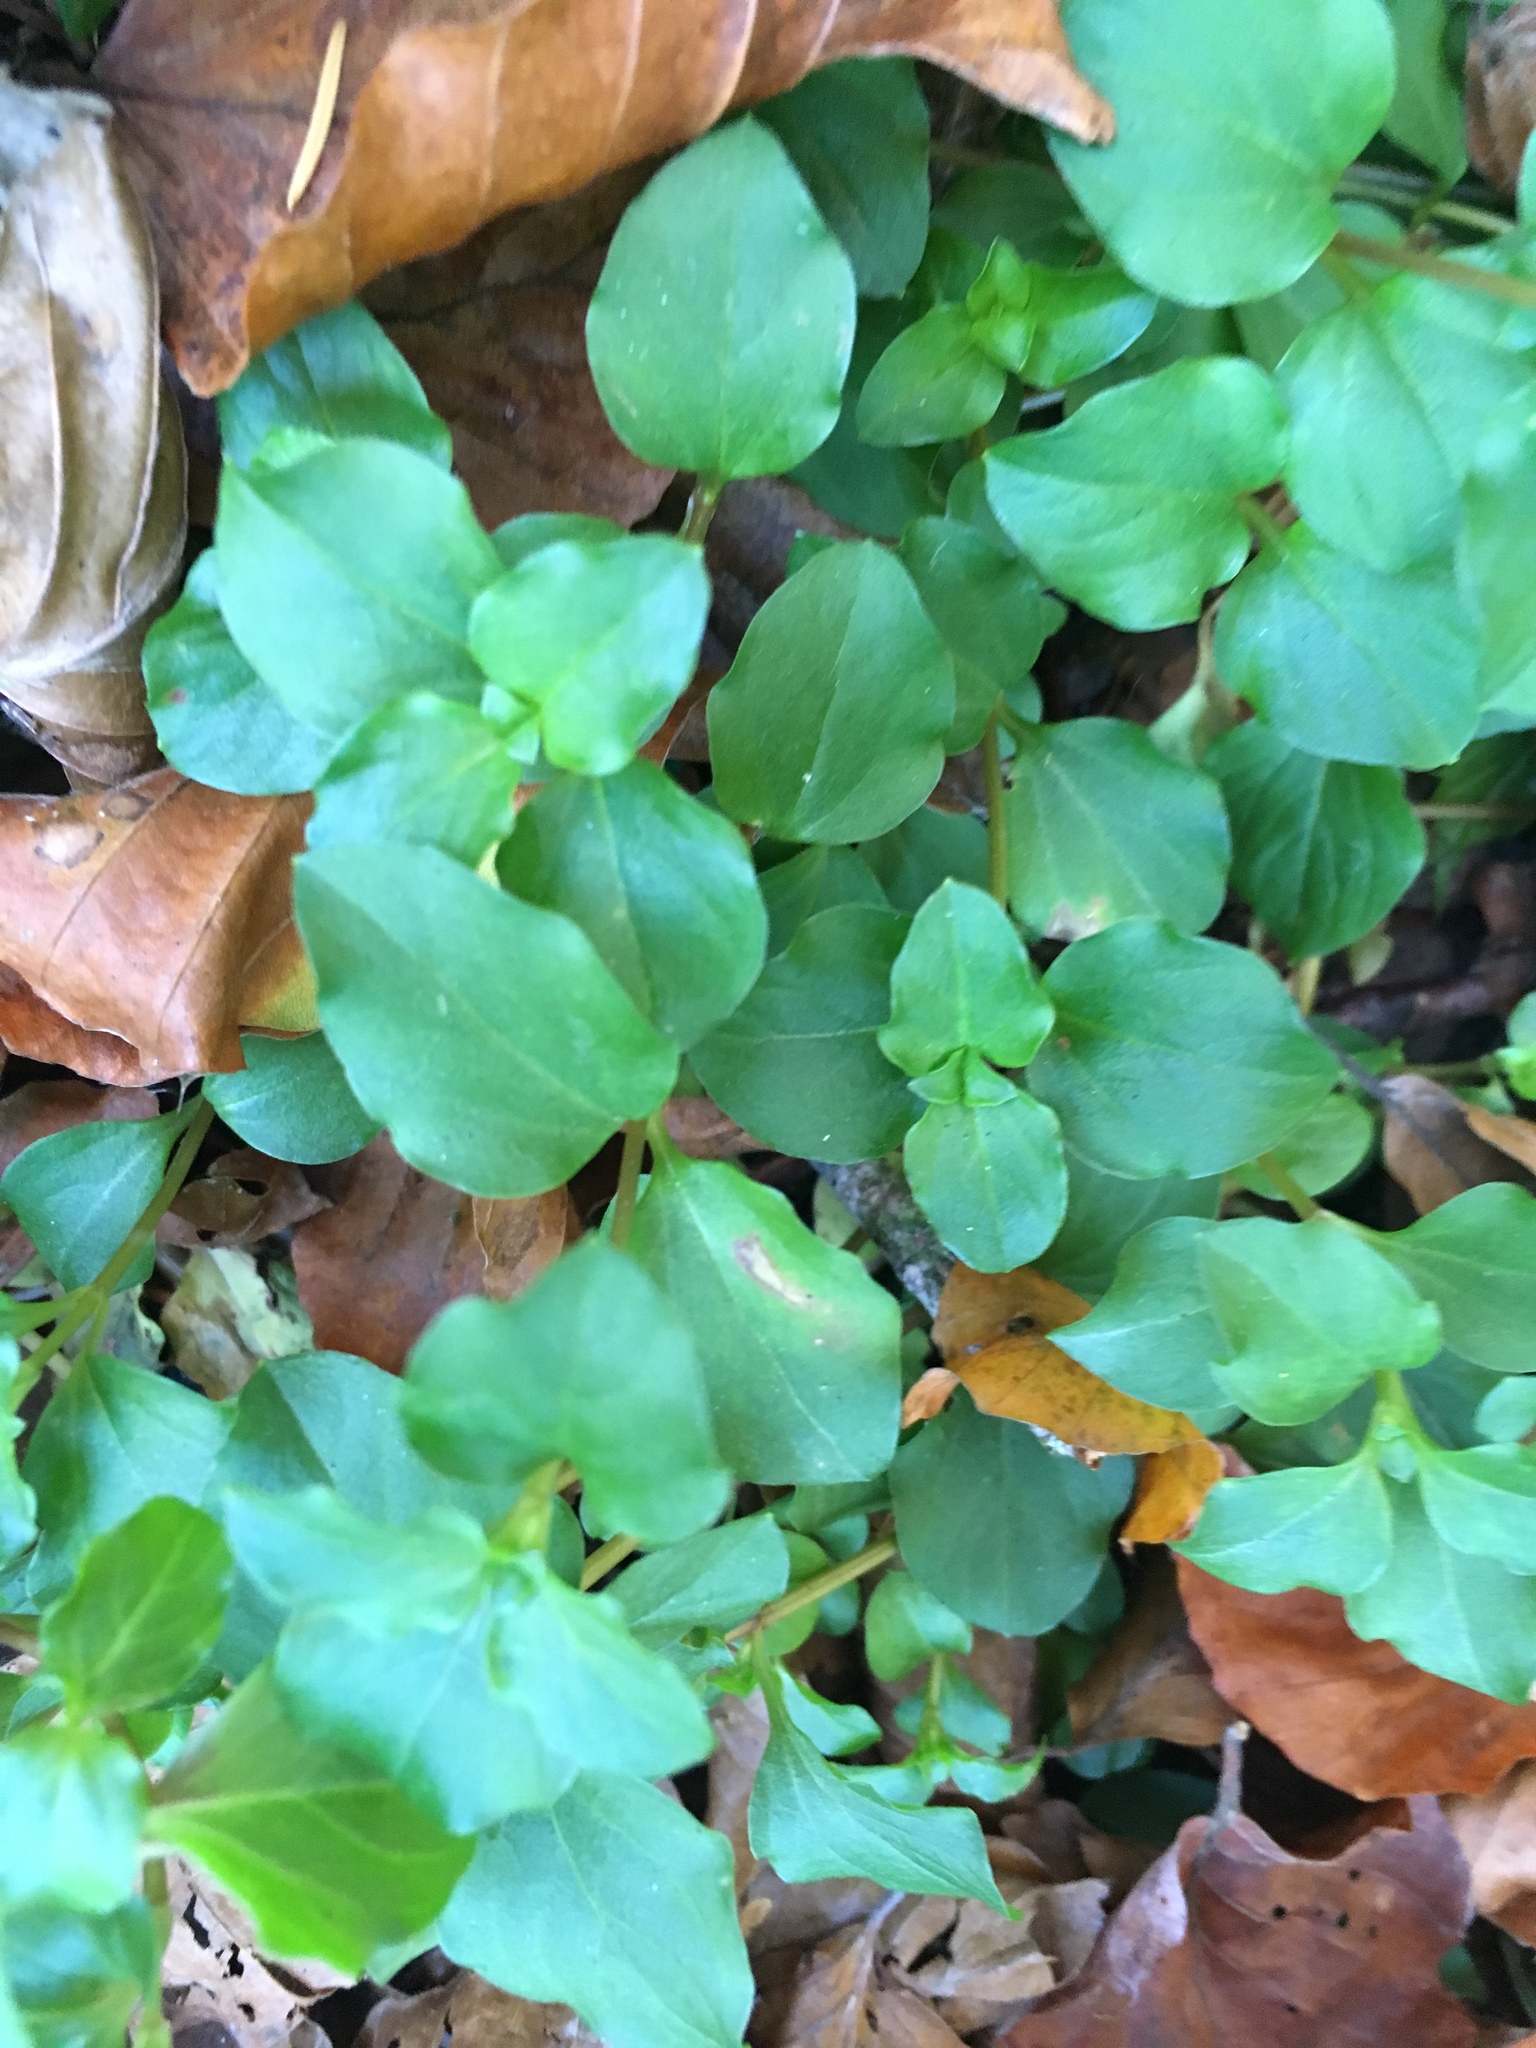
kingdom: Plantae
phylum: Tracheophyta
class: Magnoliopsida
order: Ericales
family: Primulaceae
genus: Lysimachia
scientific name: Lysimachia nemorum
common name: Yellow pimpernel
